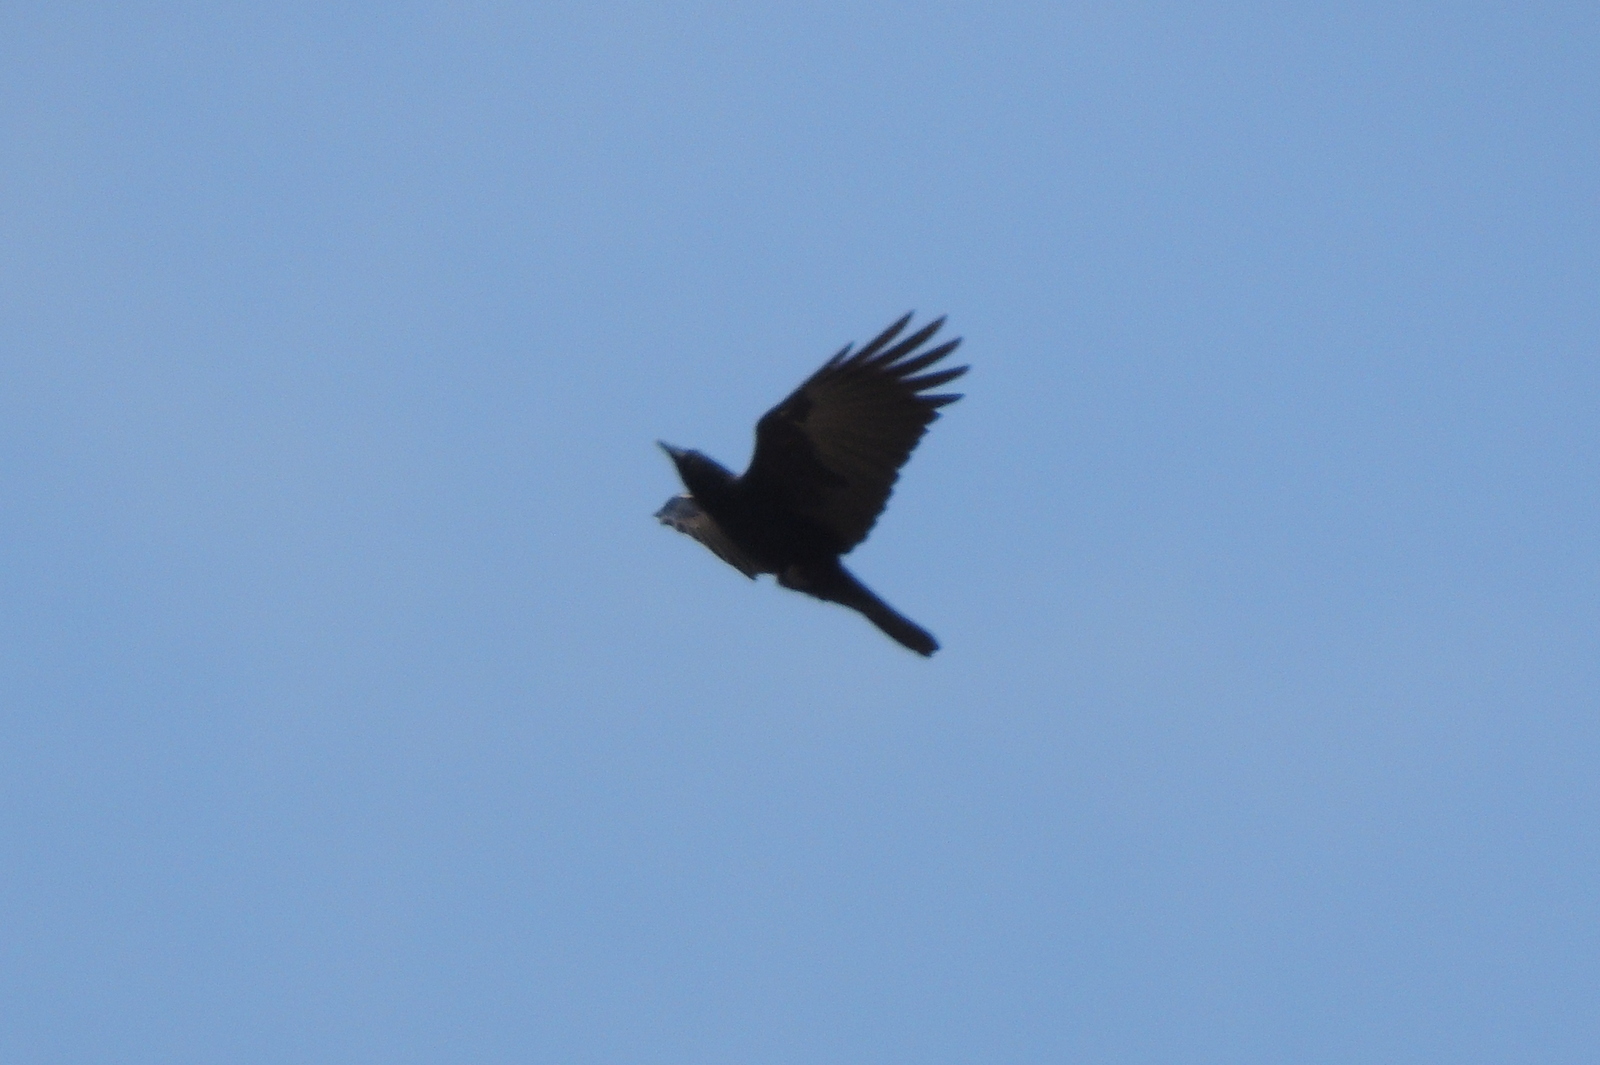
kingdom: Animalia
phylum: Chordata
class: Aves
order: Passeriformes
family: Corvidae
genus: Corvus
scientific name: Corvus brachyrhynchos
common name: American crow
